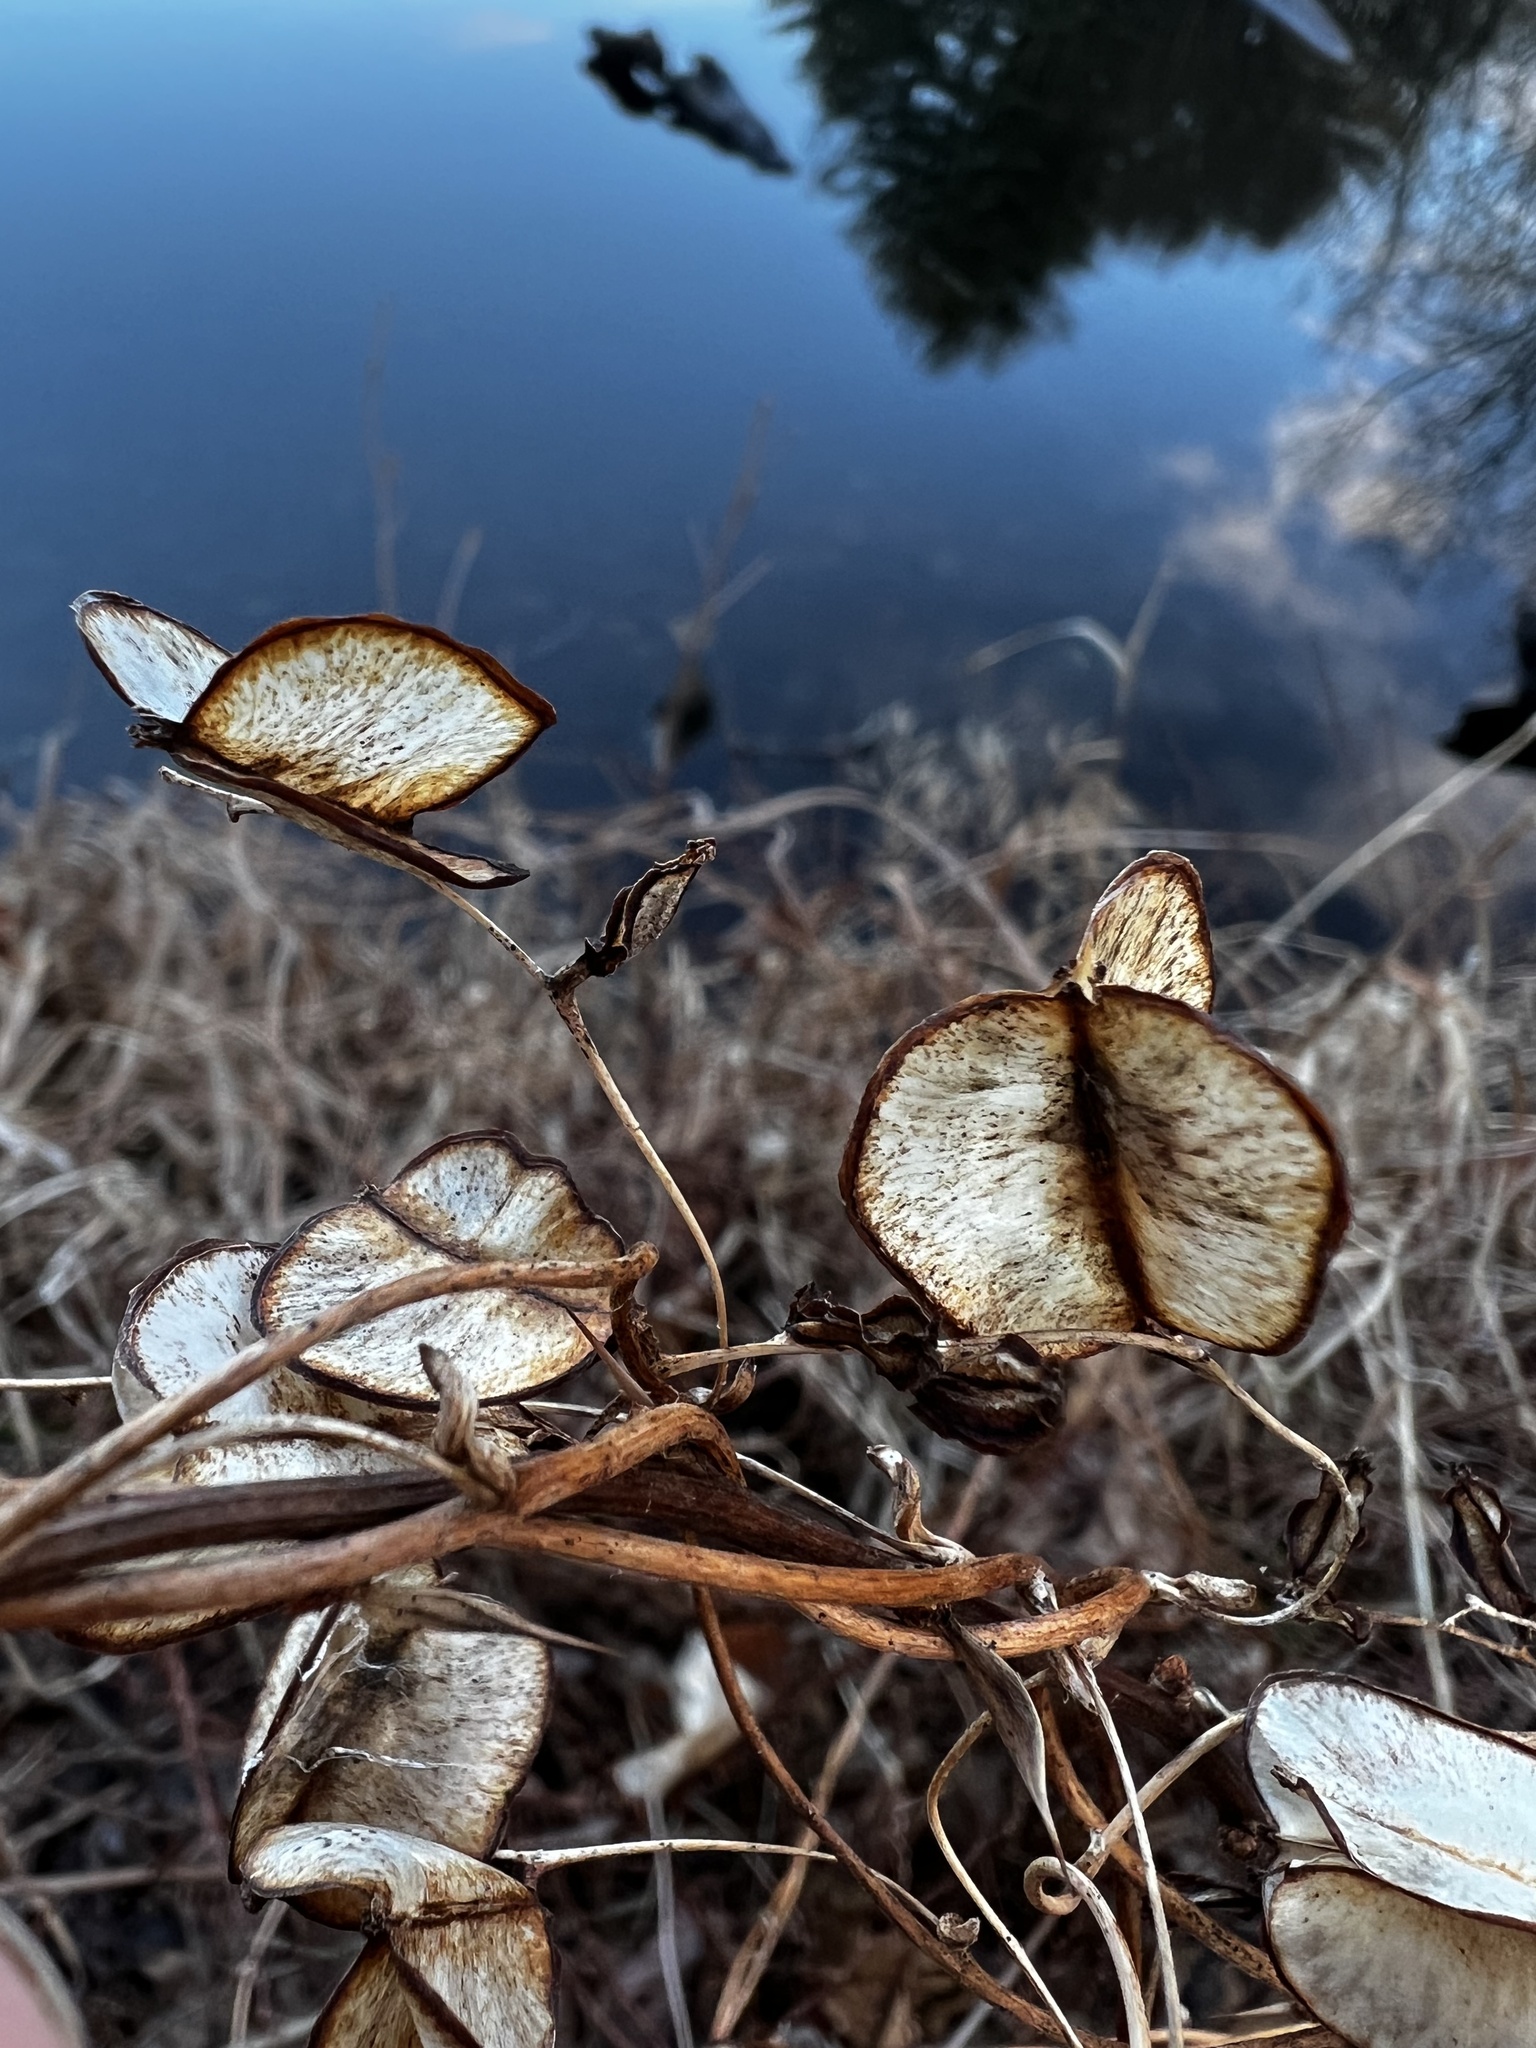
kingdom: Plantae
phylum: Tracheophyta
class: Liliopsida
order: Dioscoreales
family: Dioscoreaceae
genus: Dioscorea
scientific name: Dioscorea villosa
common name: Wild yam
